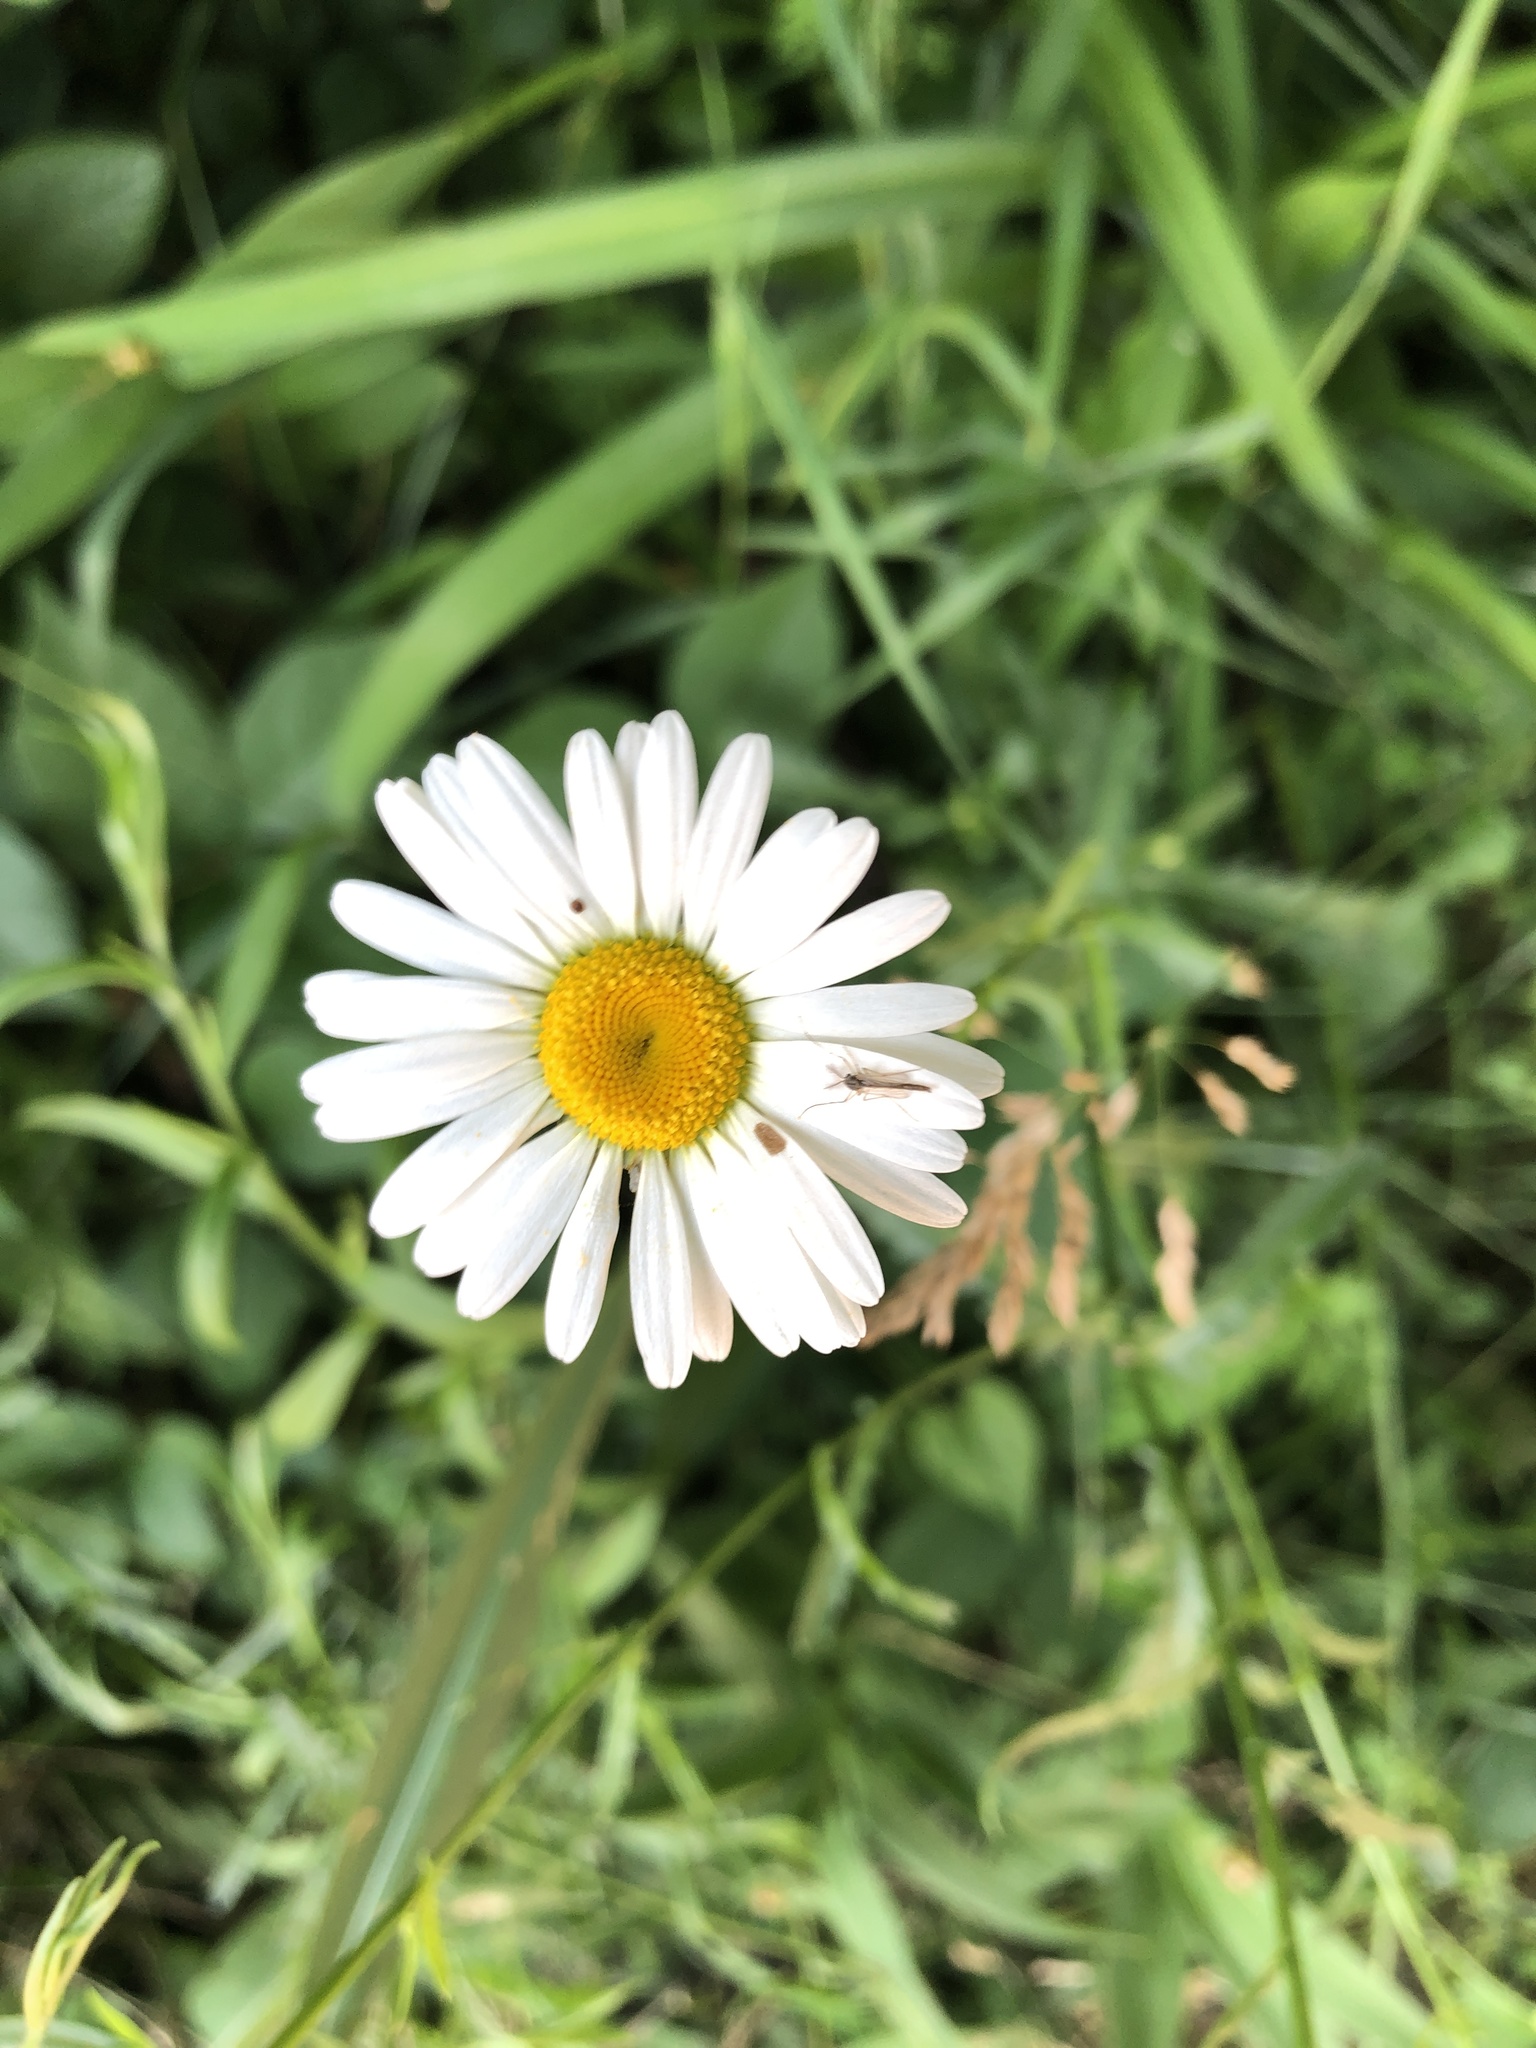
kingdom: Plantae
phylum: Tracheophyta
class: Magnoliopsida
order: Asterales
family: Asteraceae
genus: Leucanthemum
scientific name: Leucanthemum vulgare
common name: Oxeye daisy
